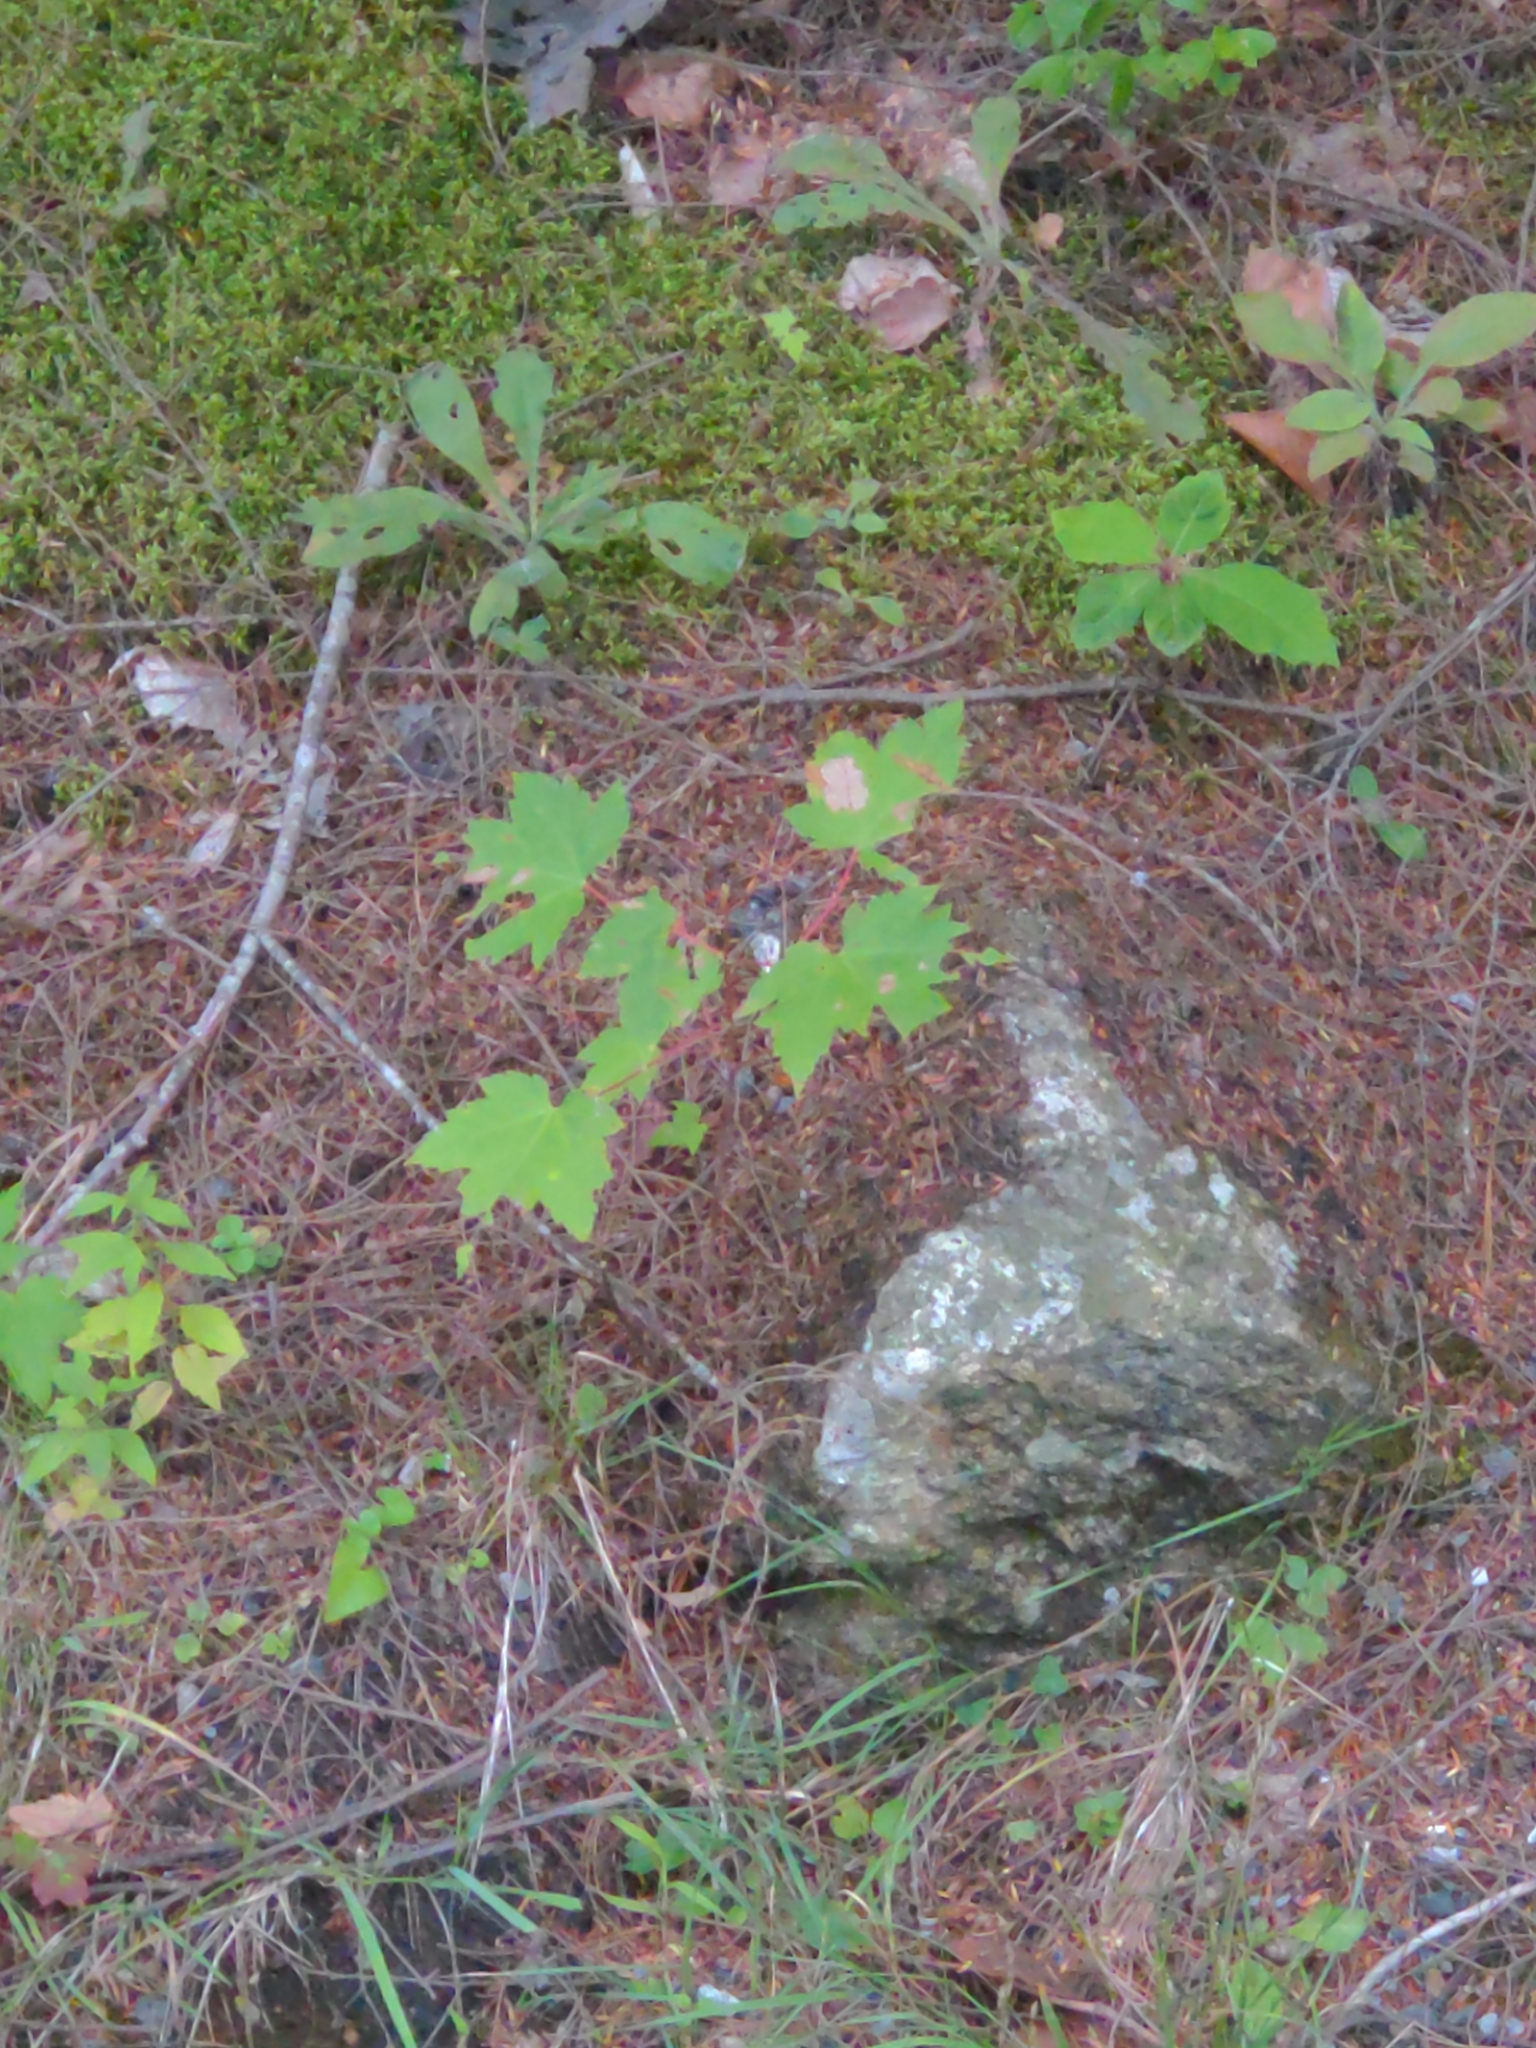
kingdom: Plantae
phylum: Tracheophyta
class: Magnoliopsida
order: Sapindales
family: Sapindaceae
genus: Acer
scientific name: Acer rubrum
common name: Red maple
